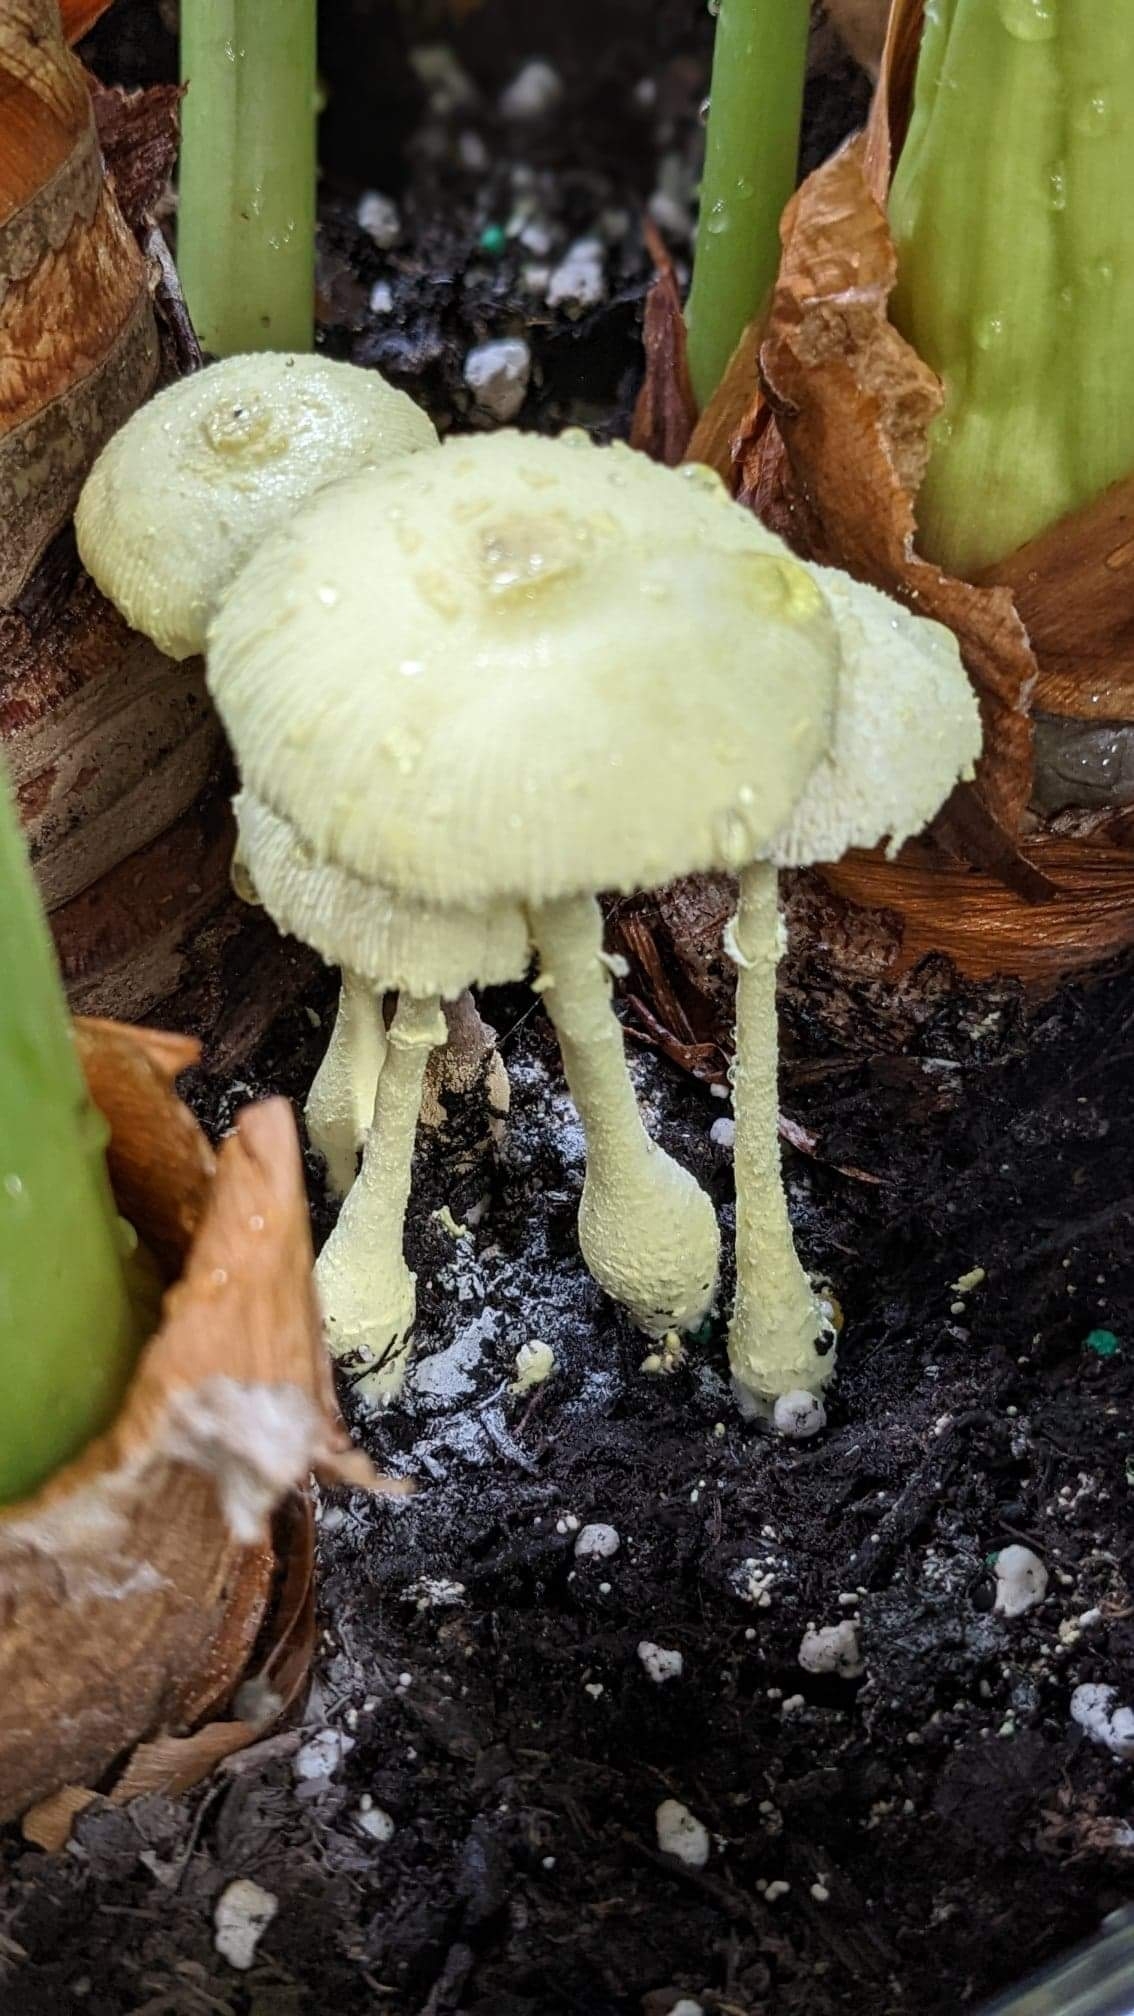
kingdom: Fungi
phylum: Basidiomycota
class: Agaricomycetes
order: Agaricales
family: Agaricaceae
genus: Leucocoprinus
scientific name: Leucocoprinus birnbaumii
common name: Plantpot dapperling
